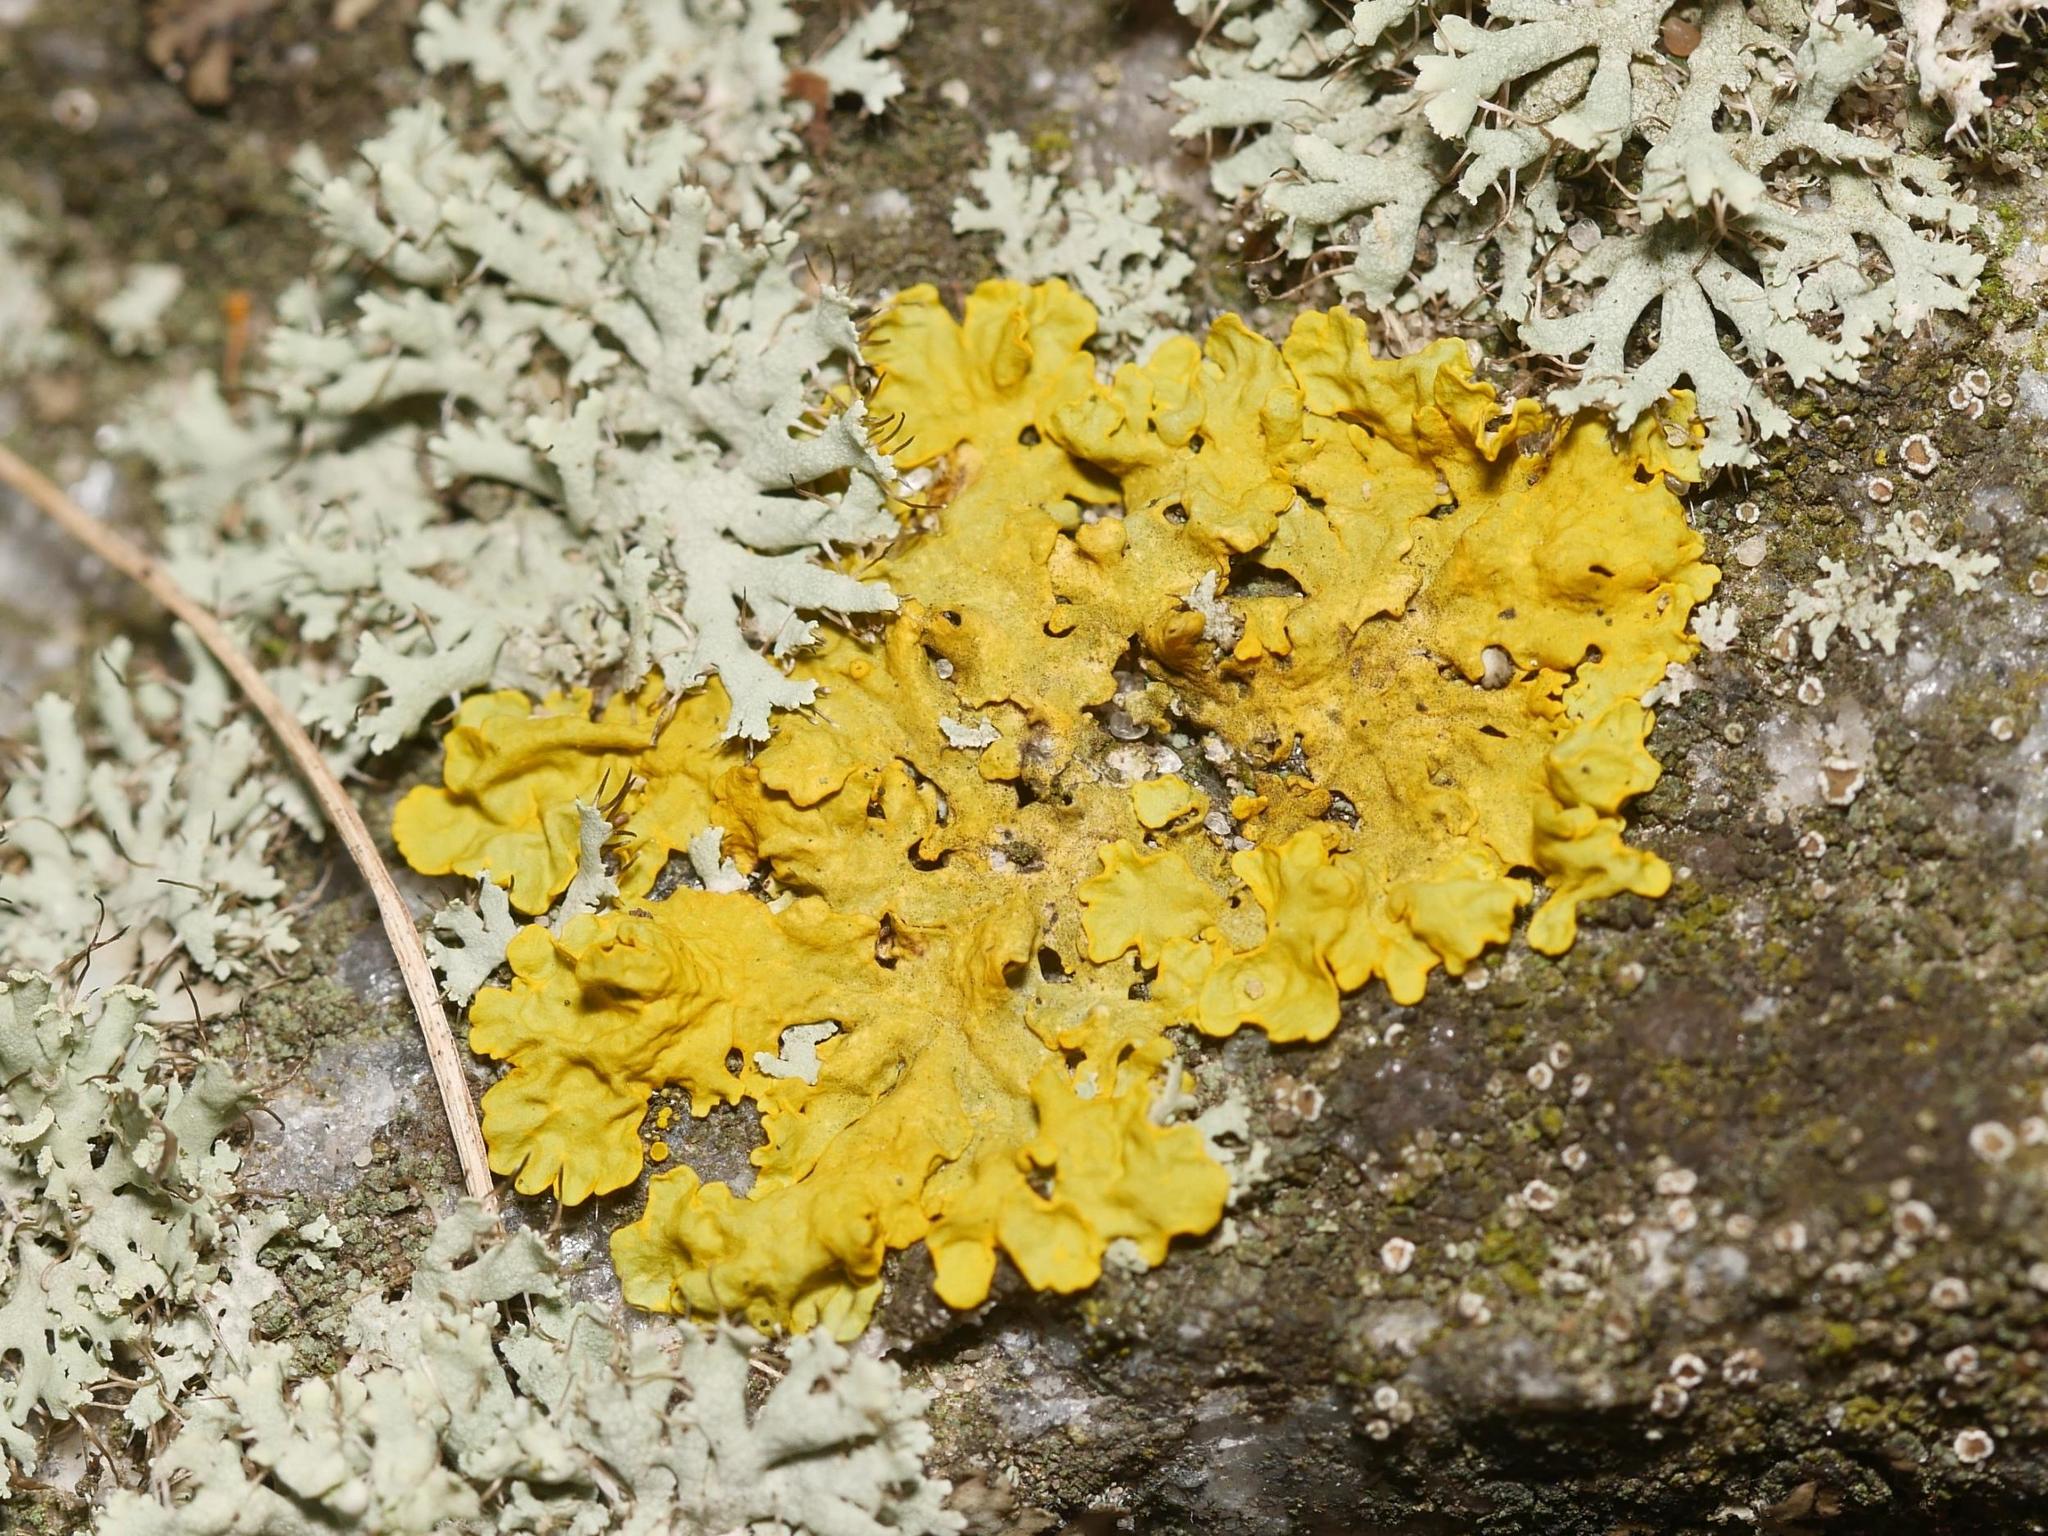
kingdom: Fungi
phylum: Ascomycota
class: Lecanoromycetes
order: Teloschistales
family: Teloschistaceae
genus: Xanthoria
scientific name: Xanthoria parietina
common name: Common orange lichen
